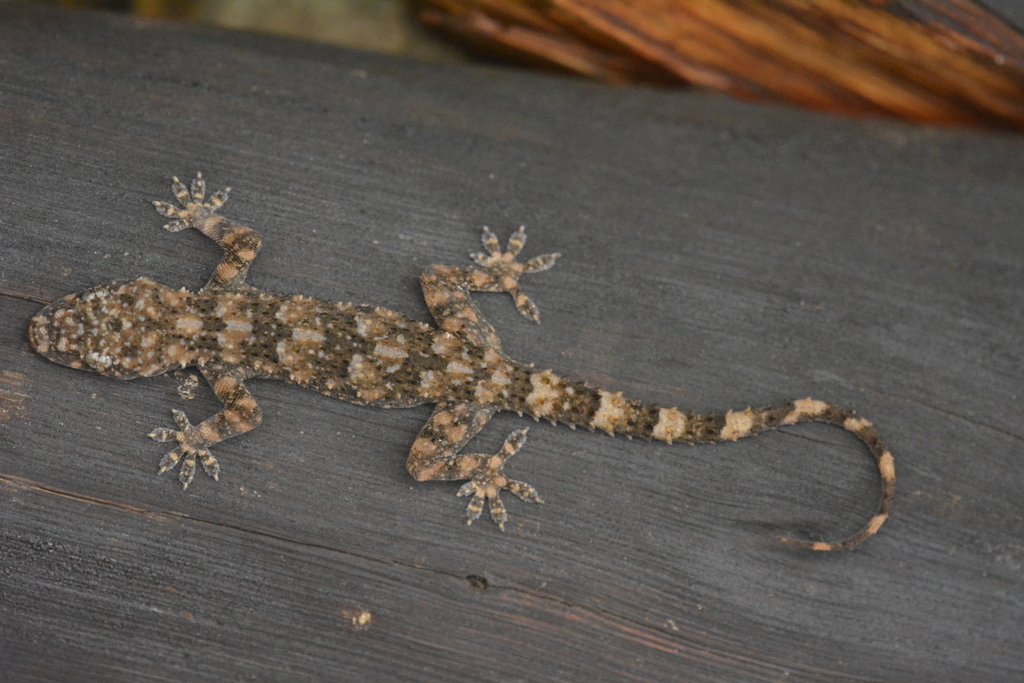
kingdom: Animalia
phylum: Chordata
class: Squamata
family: Gekkonidae
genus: Hemidactylus
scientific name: Hemidactylus tasmani
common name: Tasmanian leaf-toed gecko
